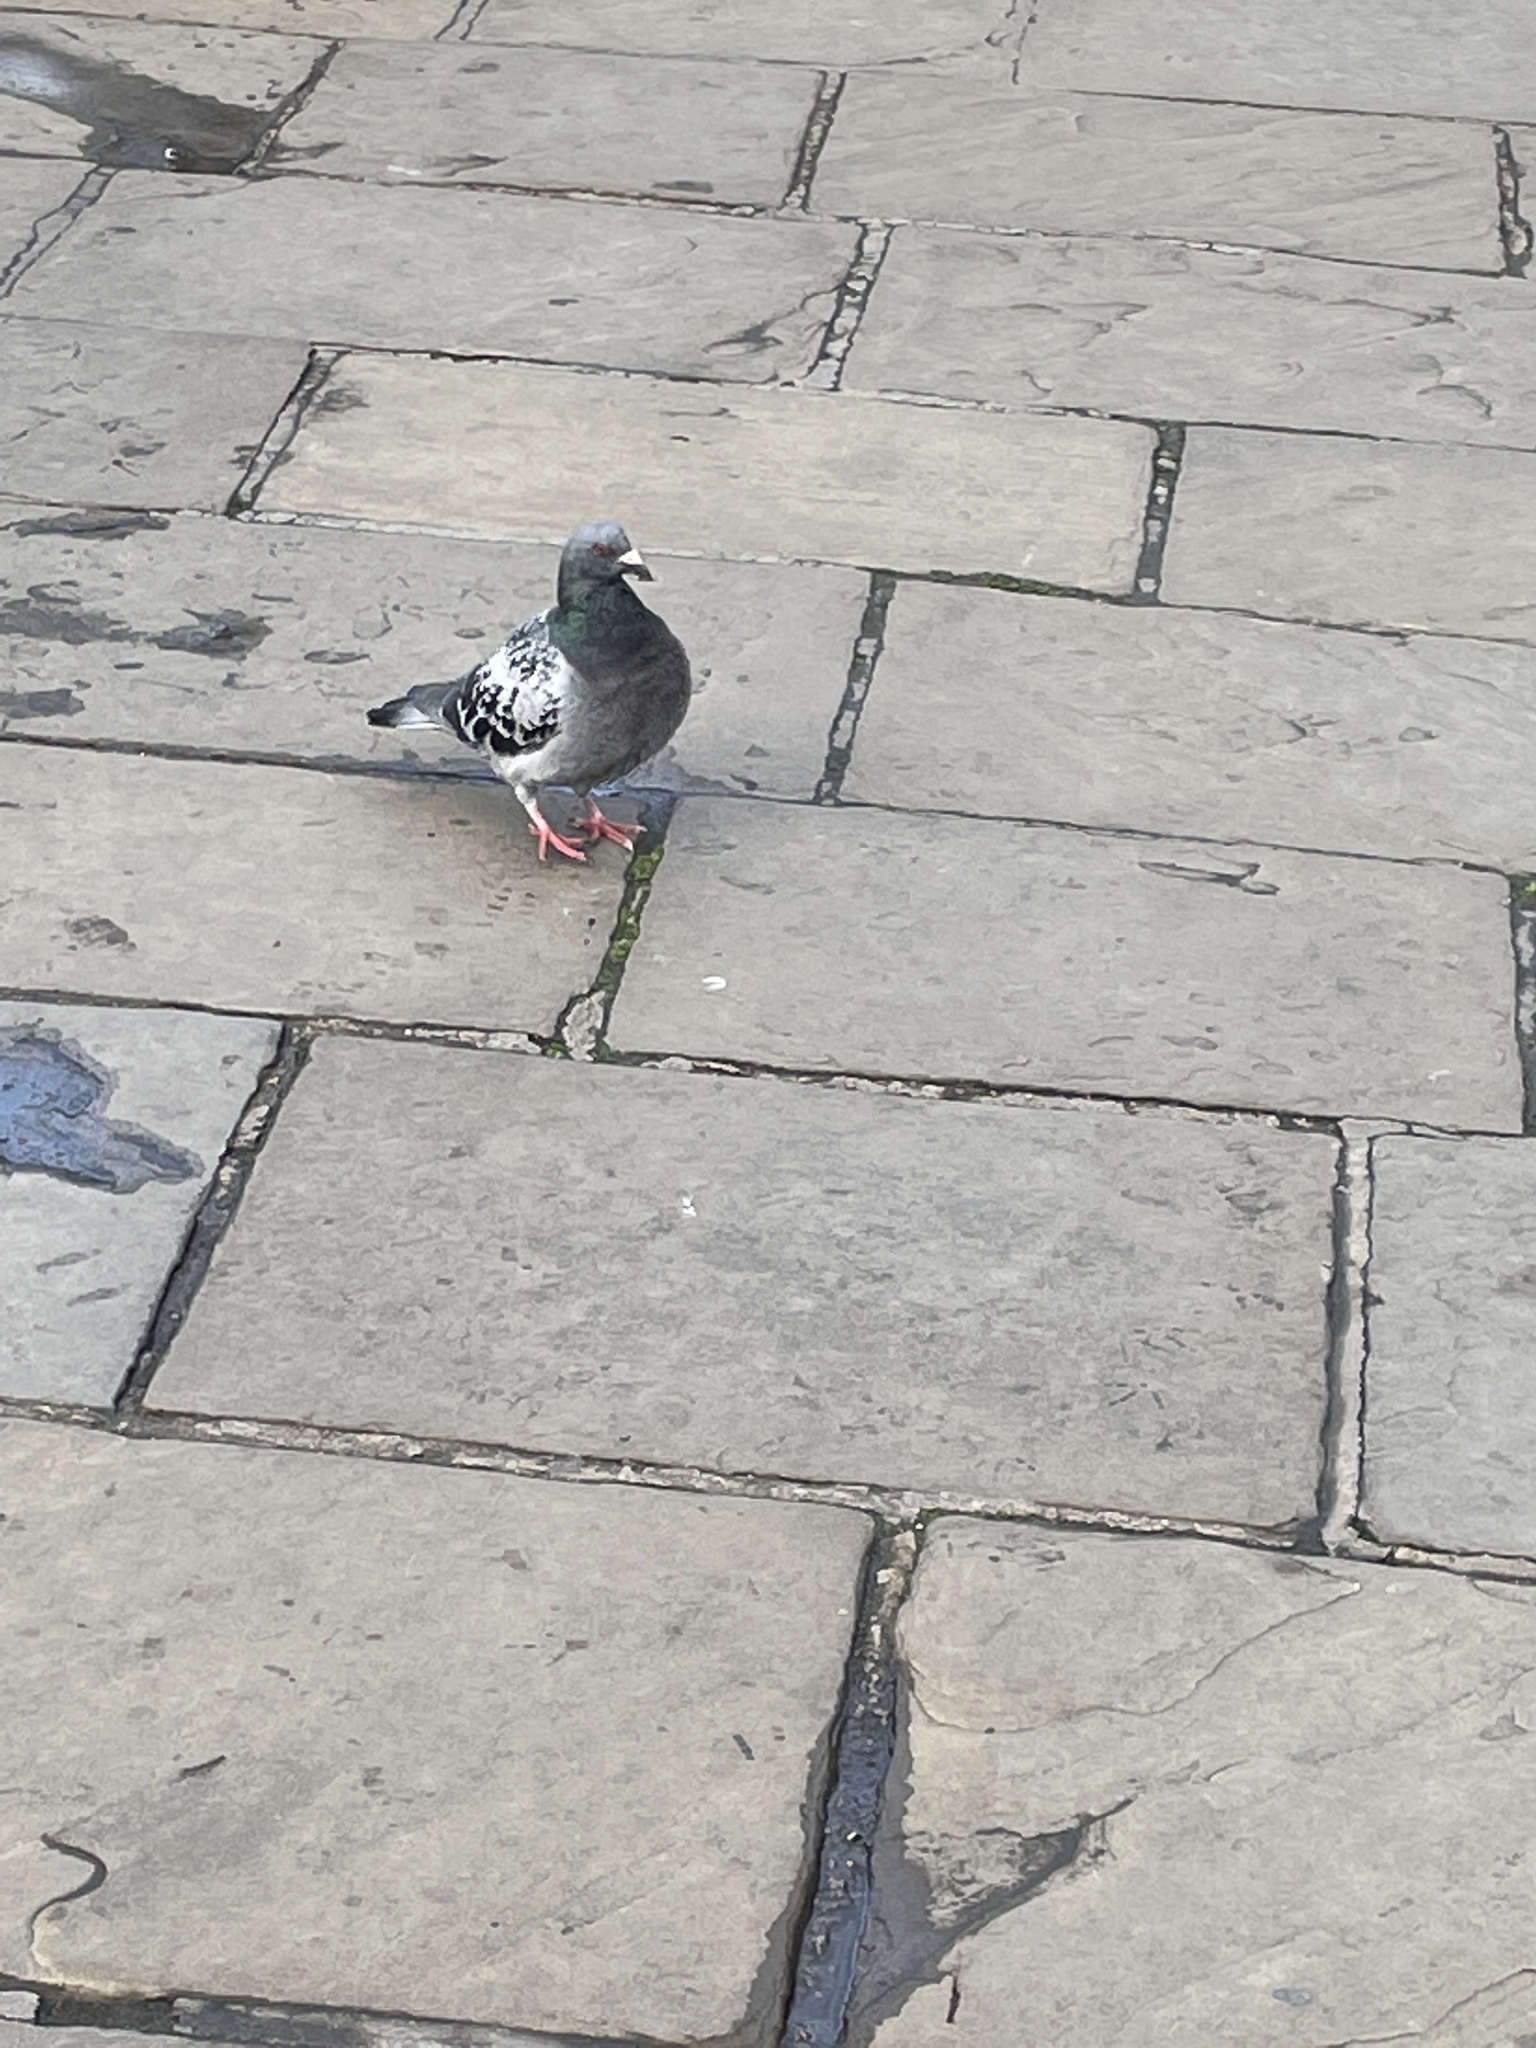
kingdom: Animalia
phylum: Chordata
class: Aves
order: Columbiformes
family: Columbidae
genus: Columba
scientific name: Columba livia
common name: Rock pigeon
